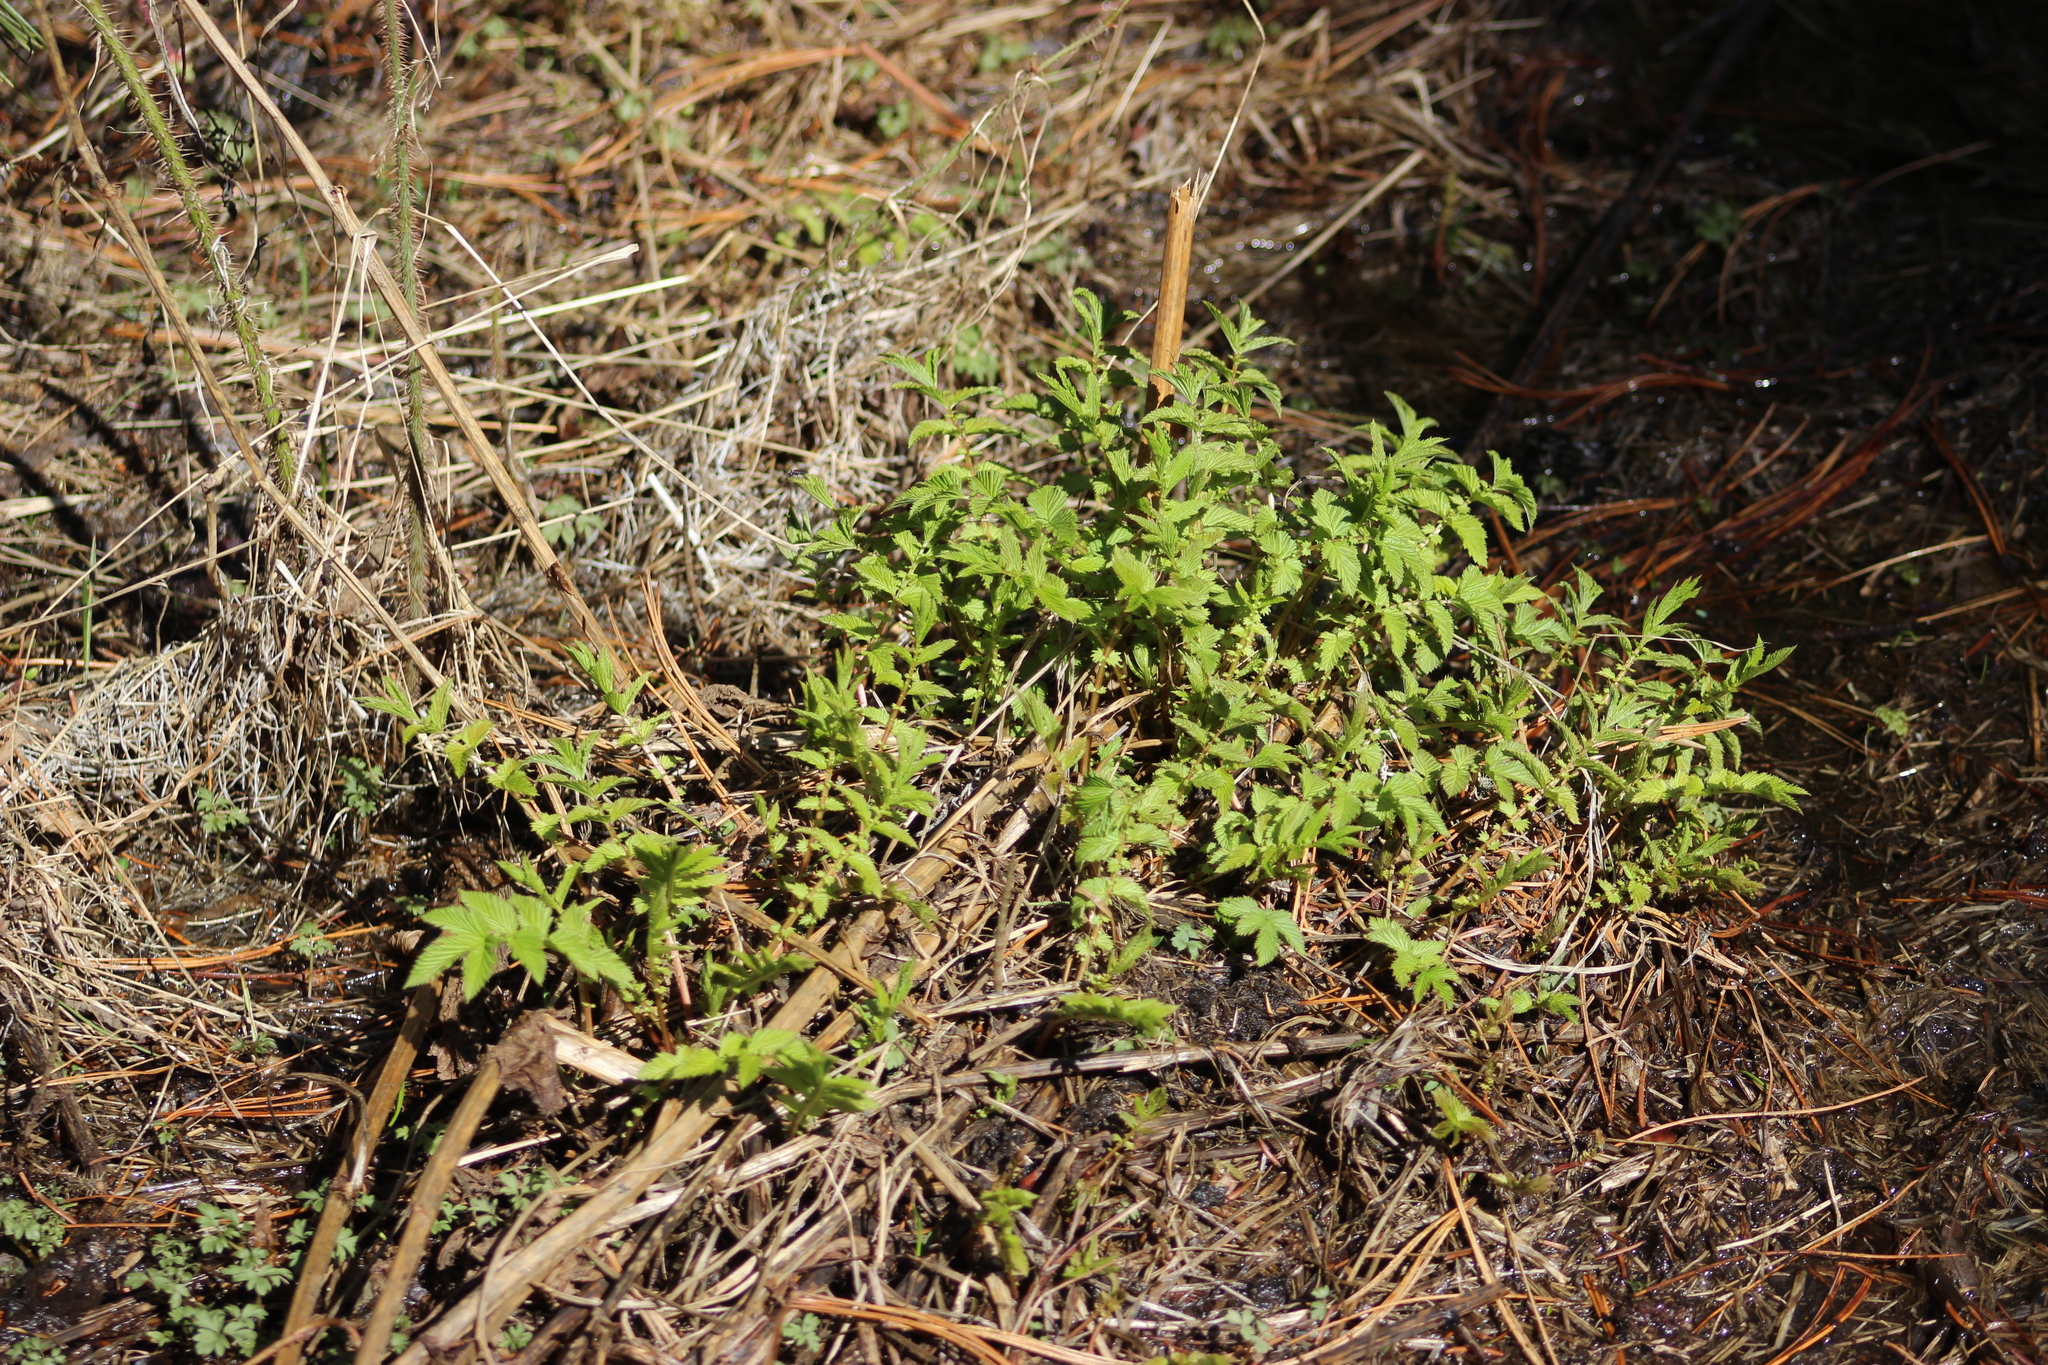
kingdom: Plantae
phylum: Tracheophyta
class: Magnoliopsida
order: Rosales
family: Rosaceae
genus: Filipendula
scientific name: Filipendula ulmaria
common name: Meadowsweet
